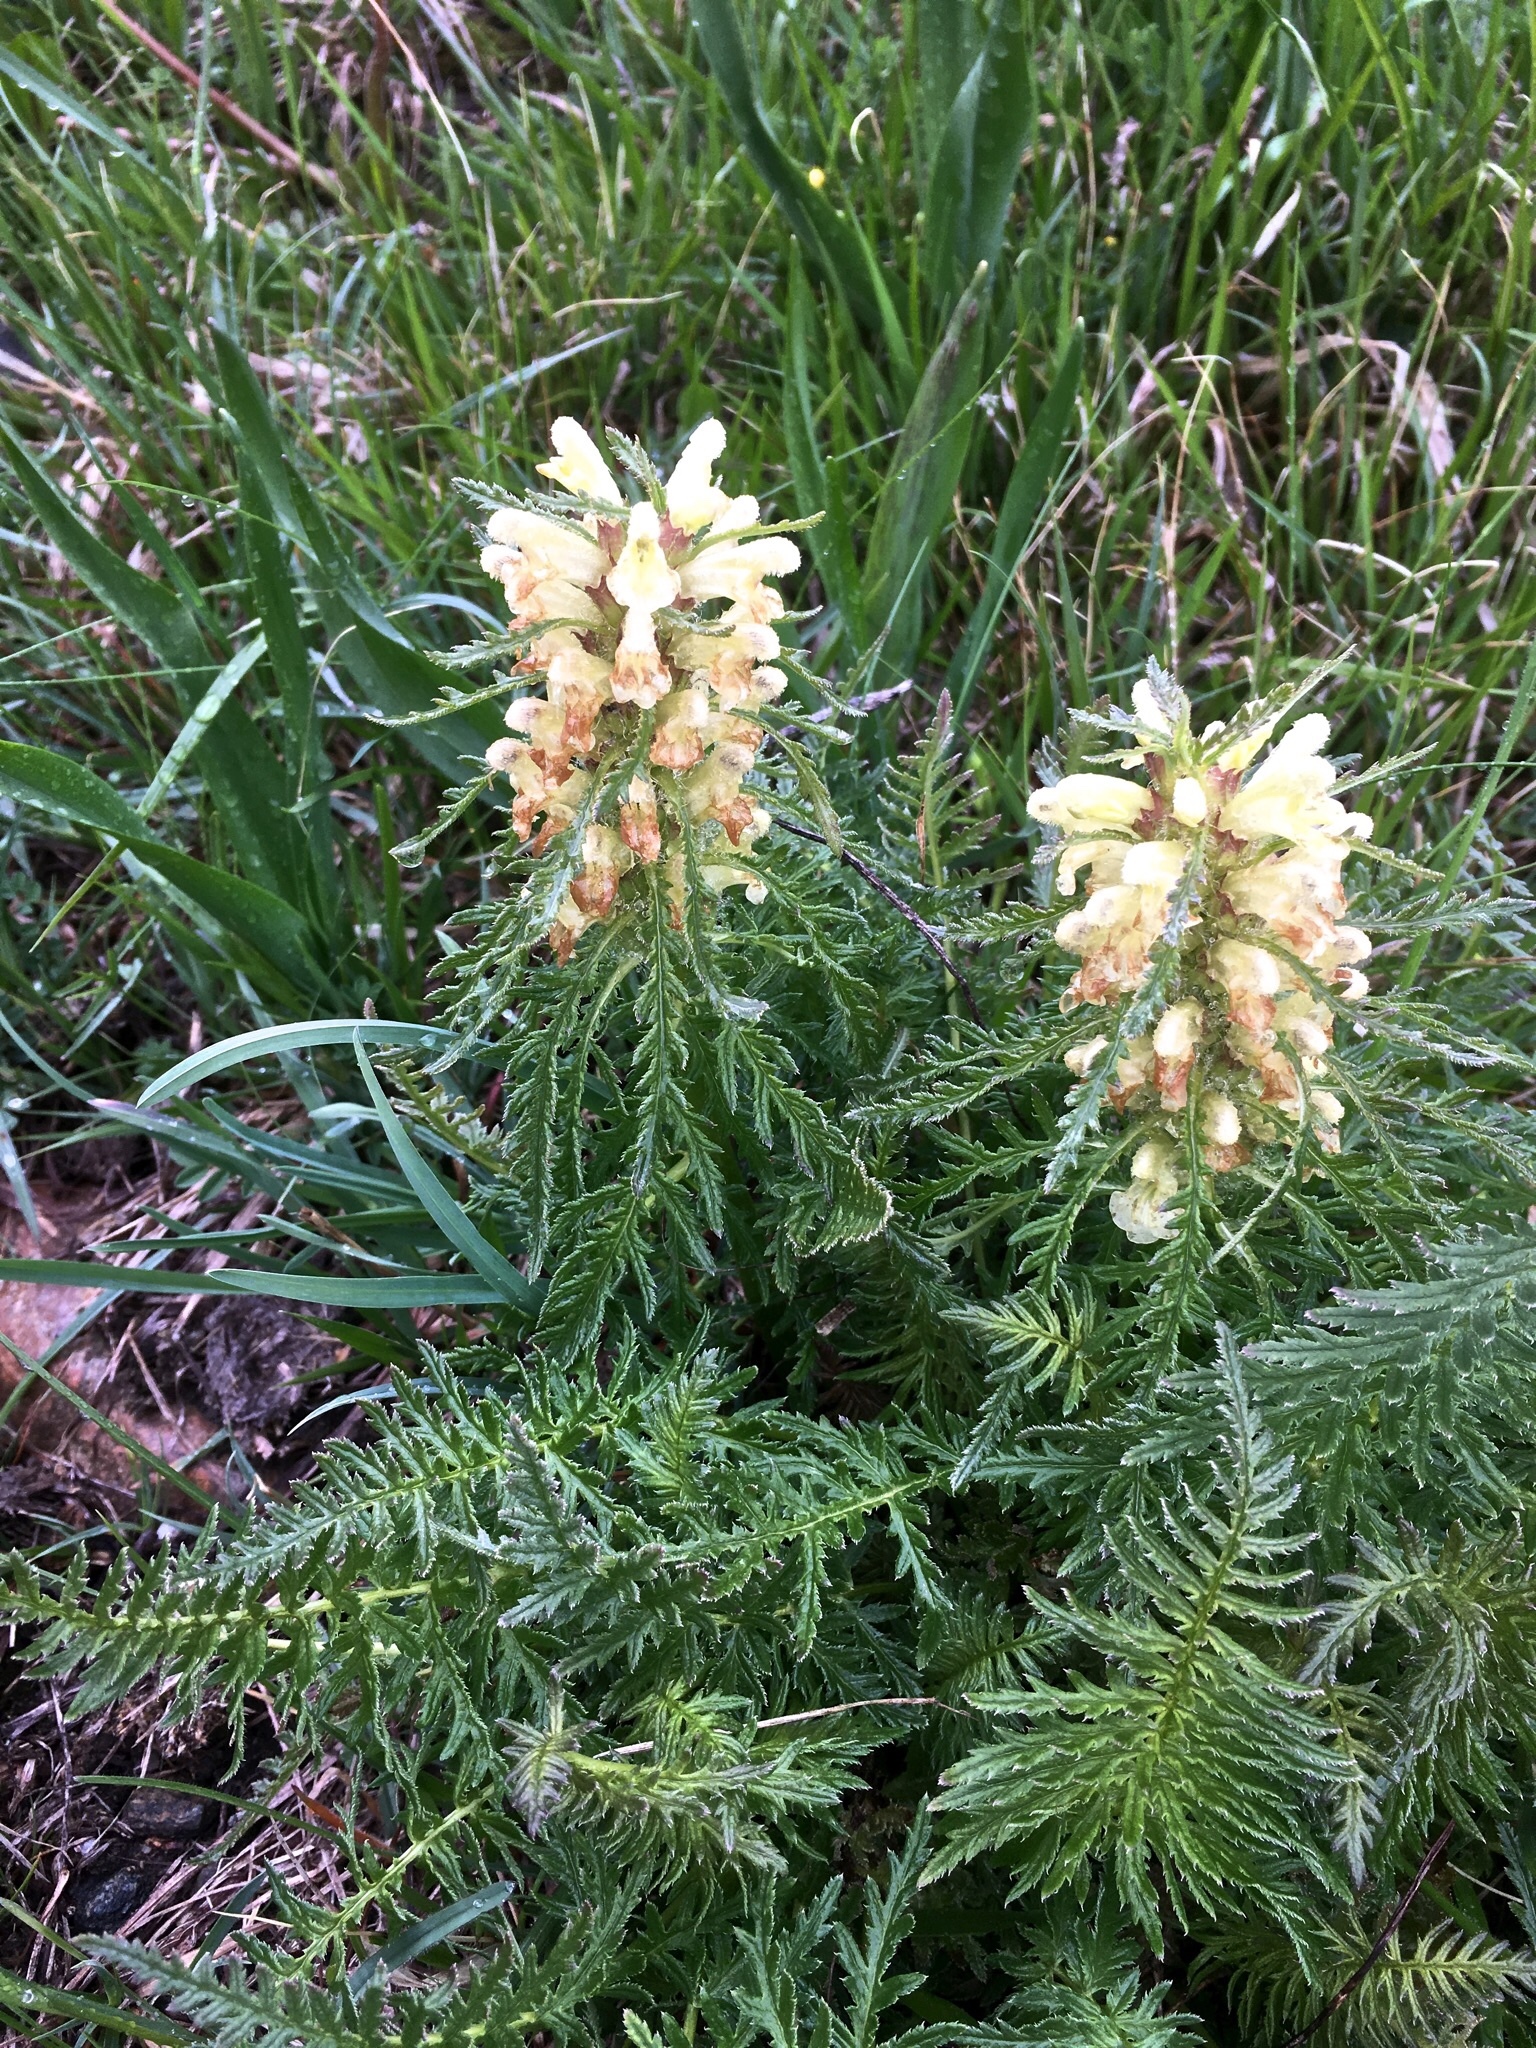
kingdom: Plantae
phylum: Tracheophyta
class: Magnoliopsida
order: Lamiales
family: Orobanchaceae
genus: Pedicularis
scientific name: Pedicularis foliosa
